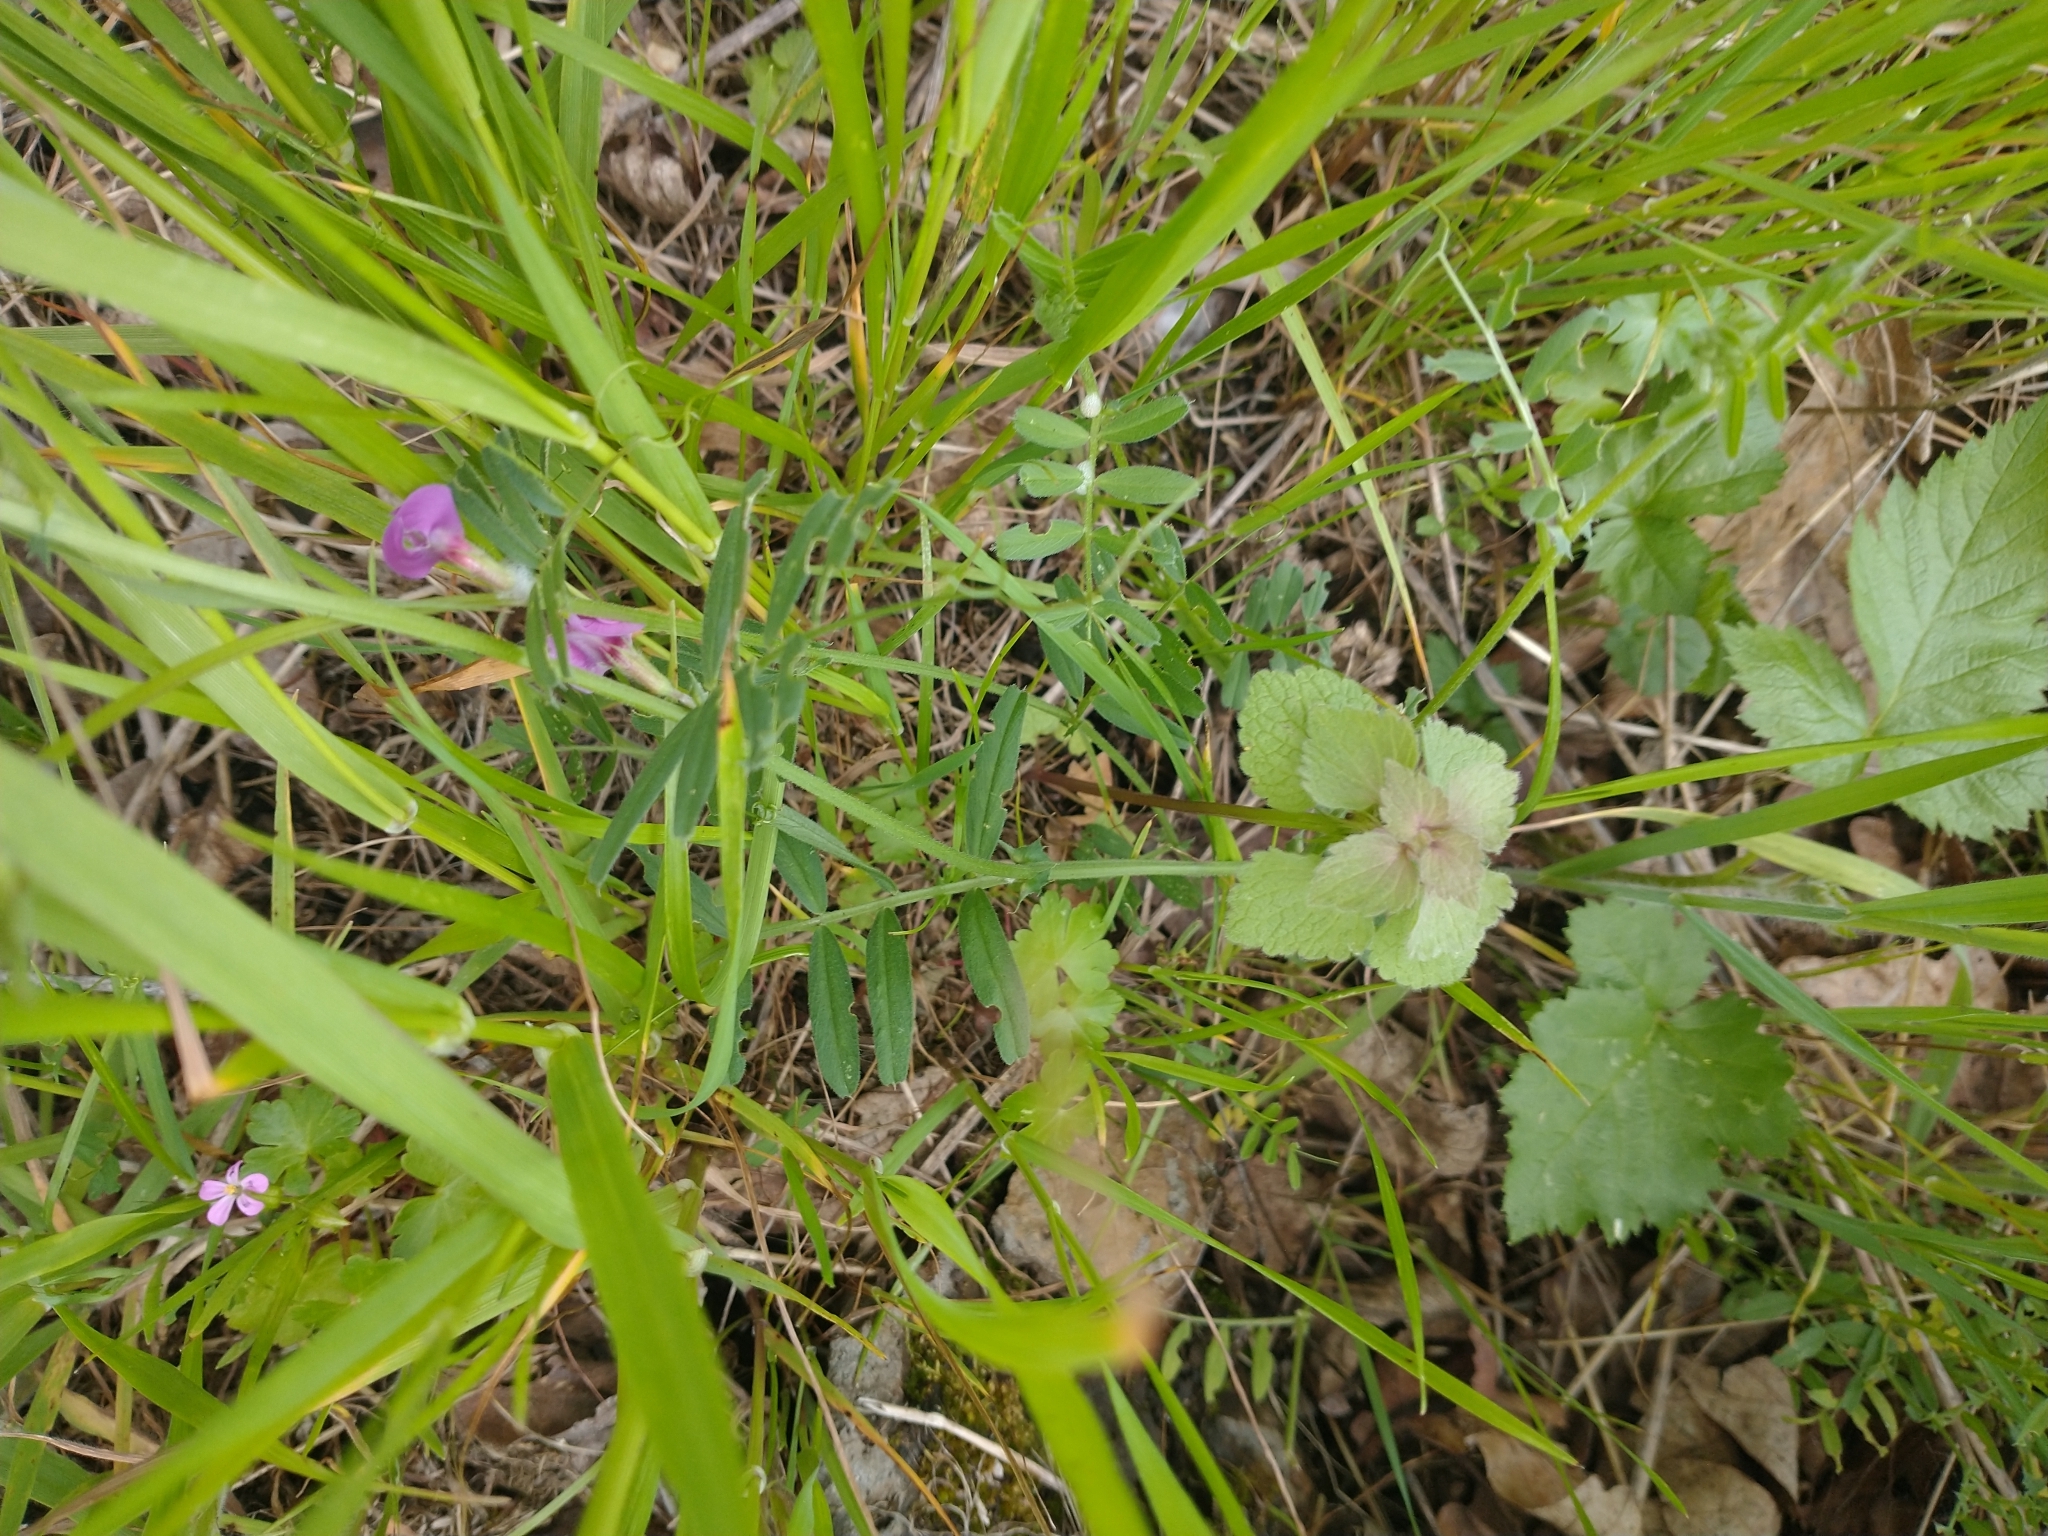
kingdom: Plantae
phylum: Tracheophyta
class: Magnoliopsida
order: Fabales
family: Fabaceae
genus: Vicia
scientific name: Vicia sativa
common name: Garden vetch
